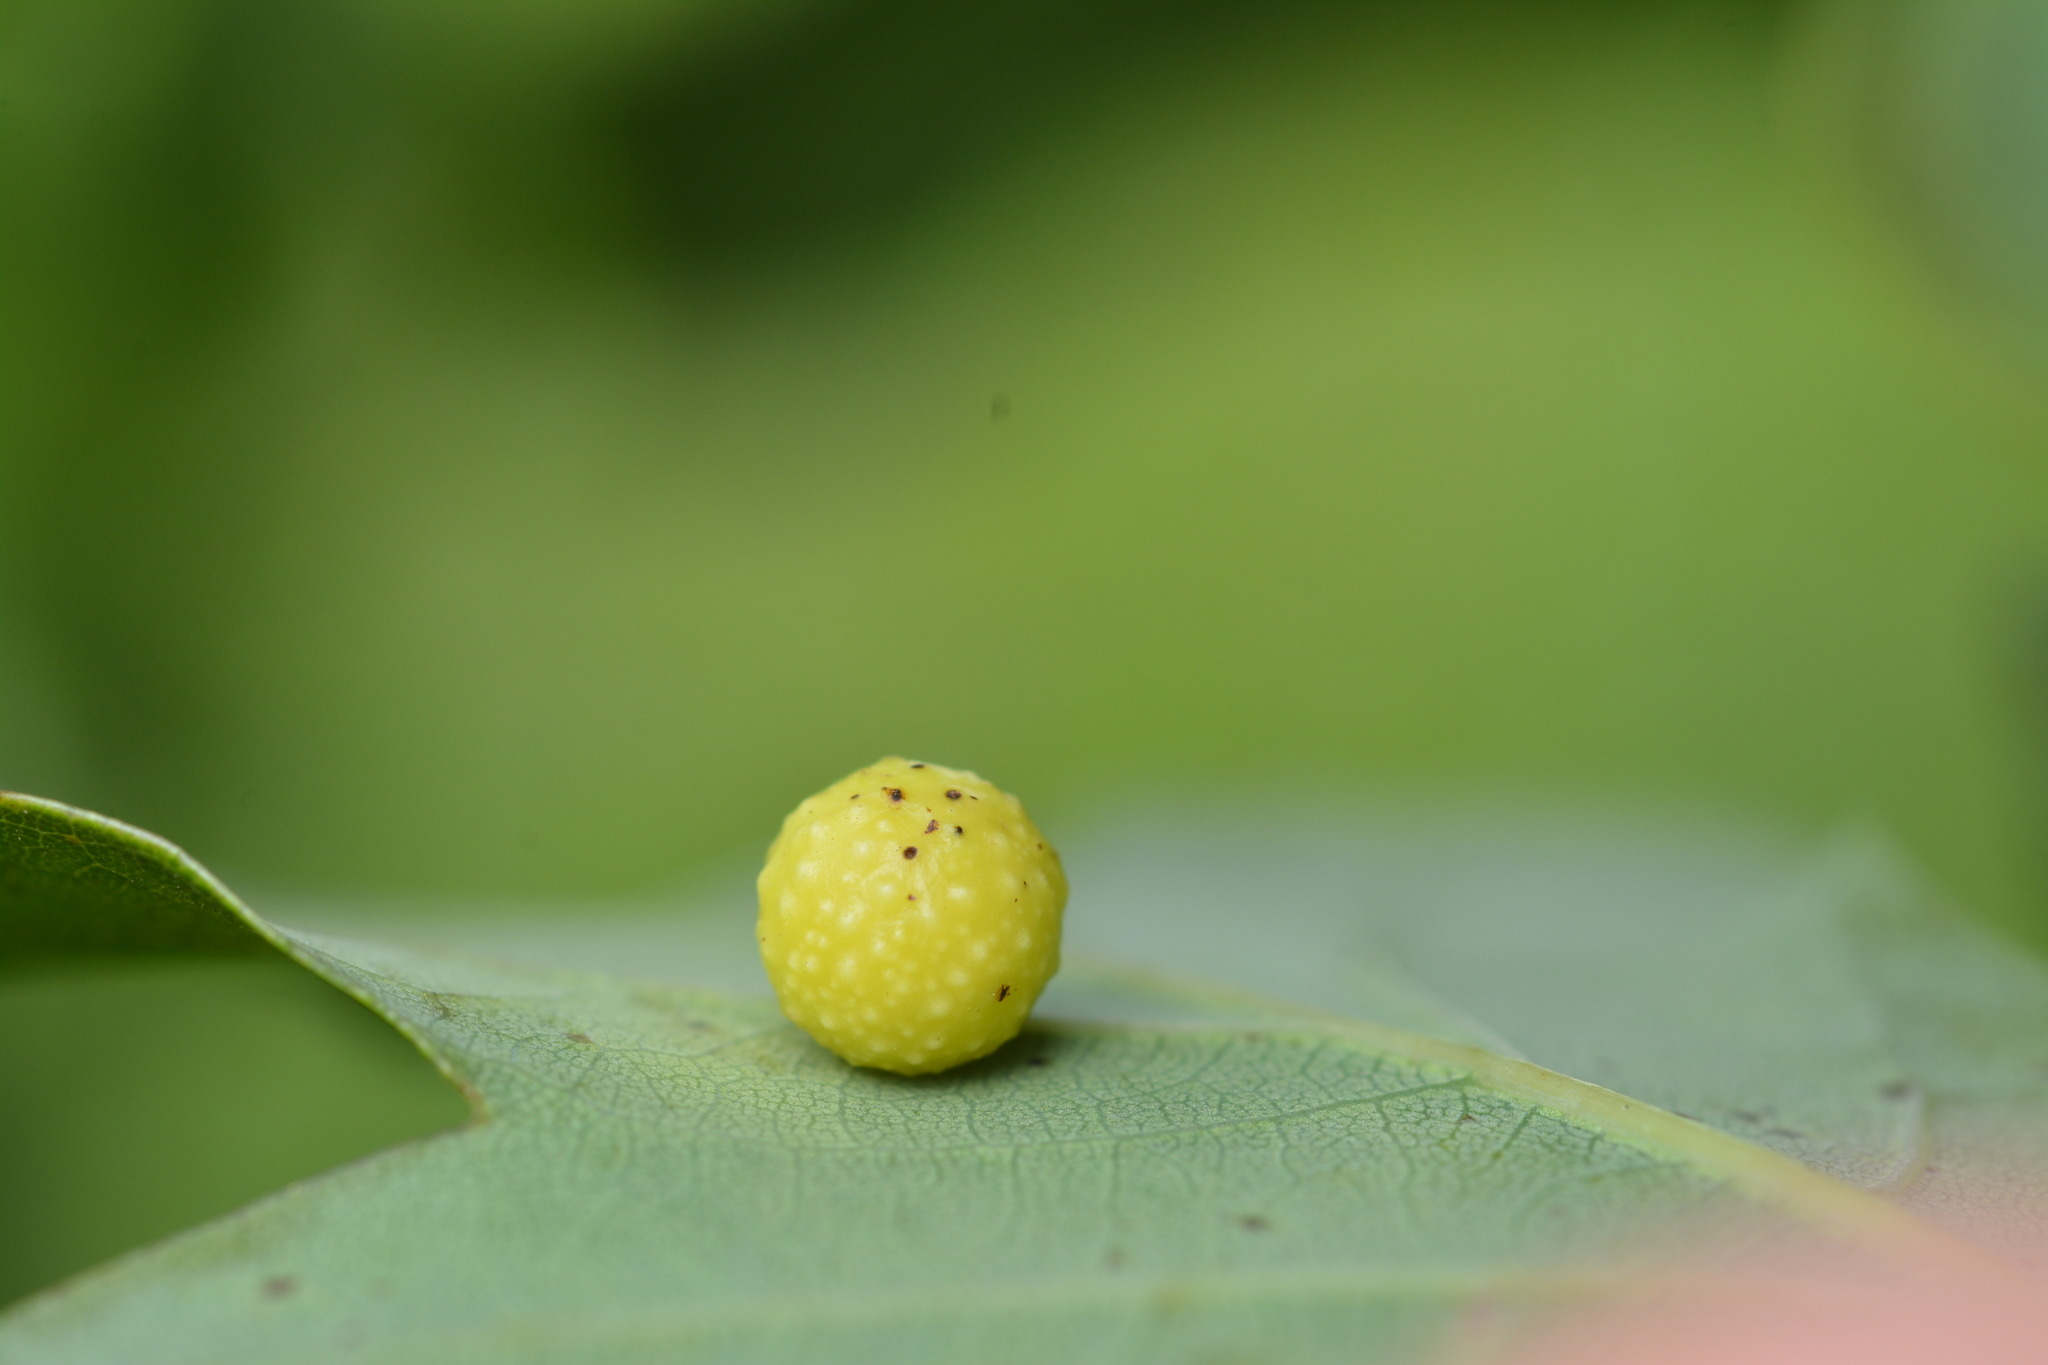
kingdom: Animalia
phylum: Arthropoda
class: Insecta
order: Hymenoptera
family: Cynipidae
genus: Cynips
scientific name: Cynips quercusfolii
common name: Cherry gall
